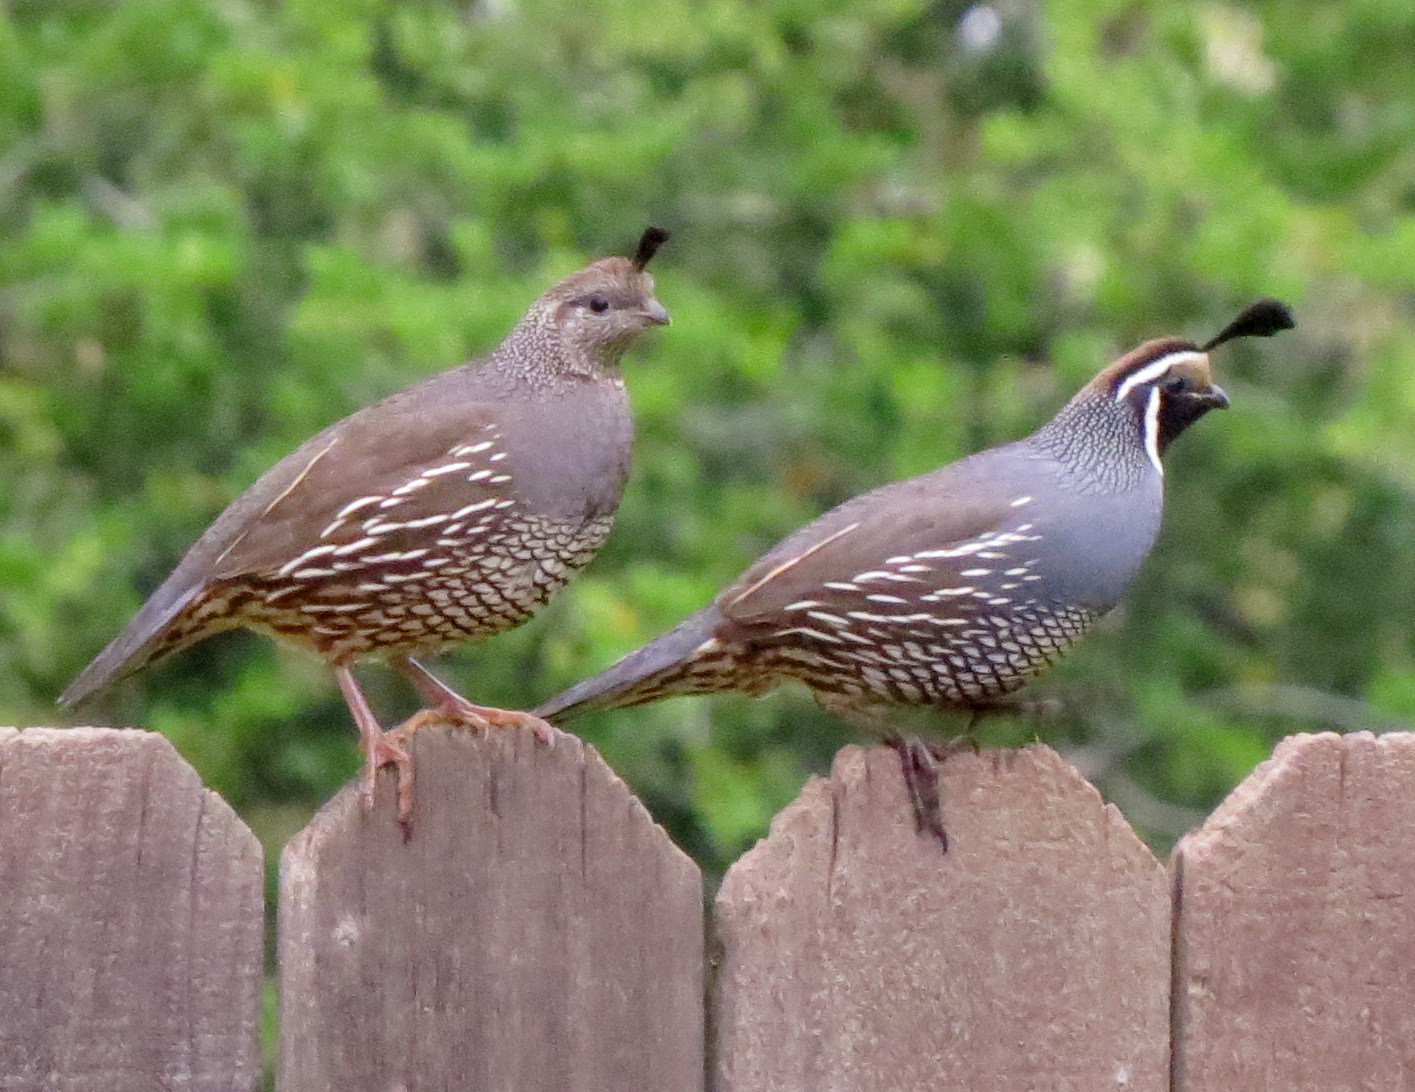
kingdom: Animalia
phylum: Chordata
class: Aves
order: Galliformes
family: Odontophoridae
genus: Callipepla
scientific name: Callipepla californica
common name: California quail
